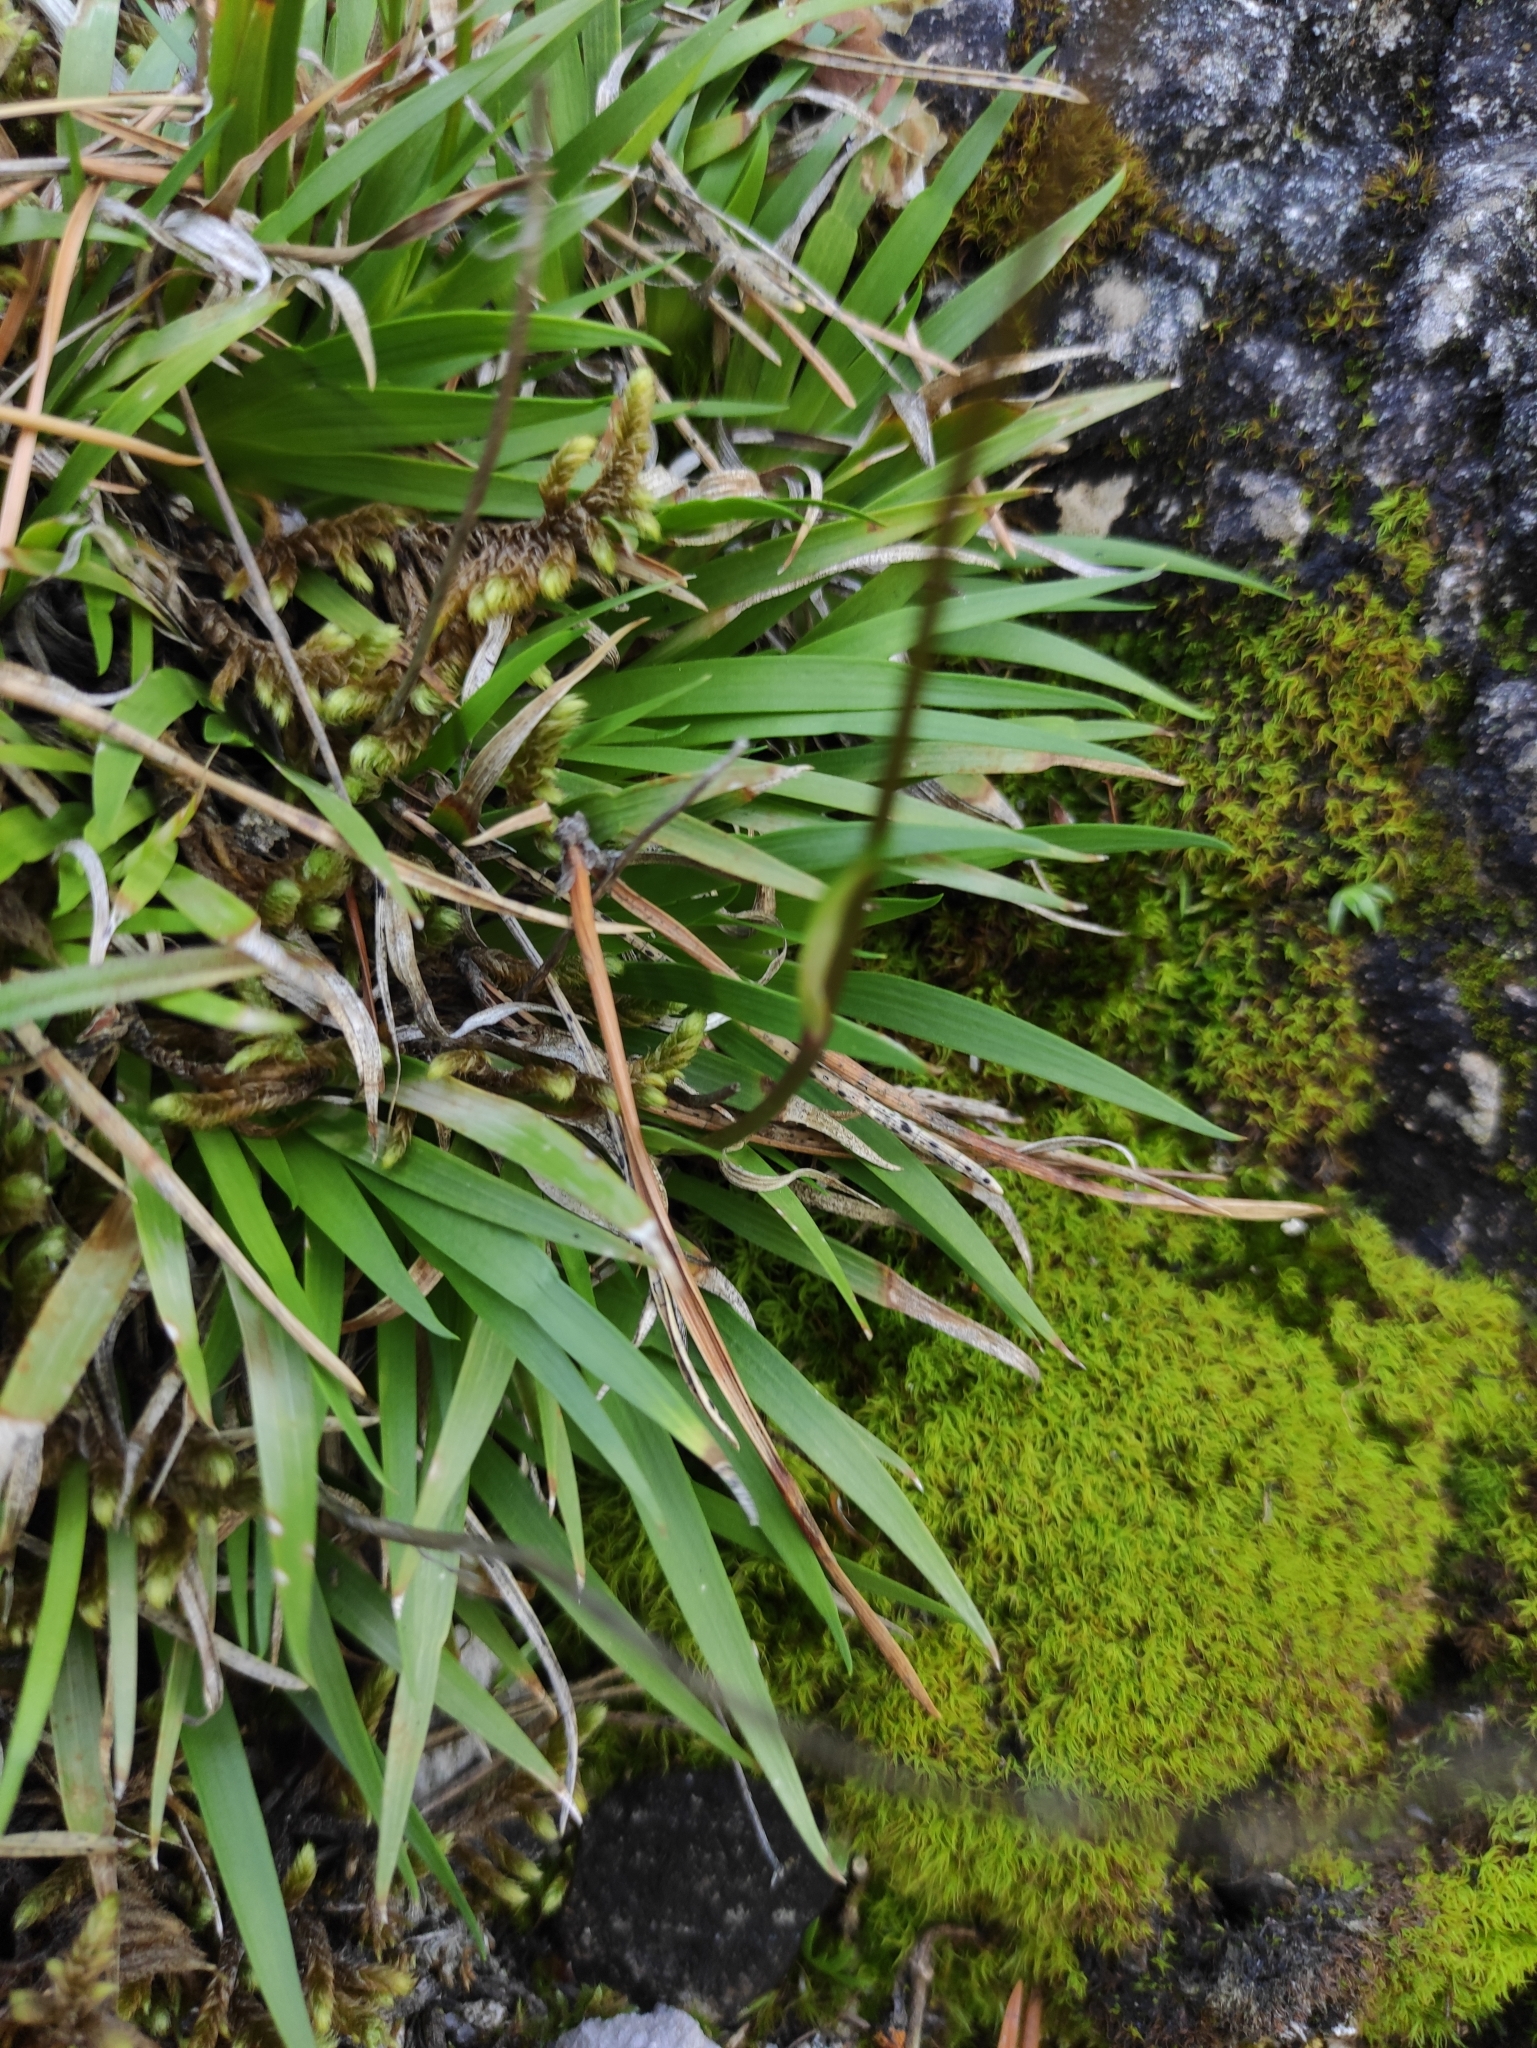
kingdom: Plantae
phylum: Tracheophyta
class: Liliopsida
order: Alismatales
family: Tofieldiaceae
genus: Tofieldia
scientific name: Tofieldia coccinea
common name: Northern false asphodel
